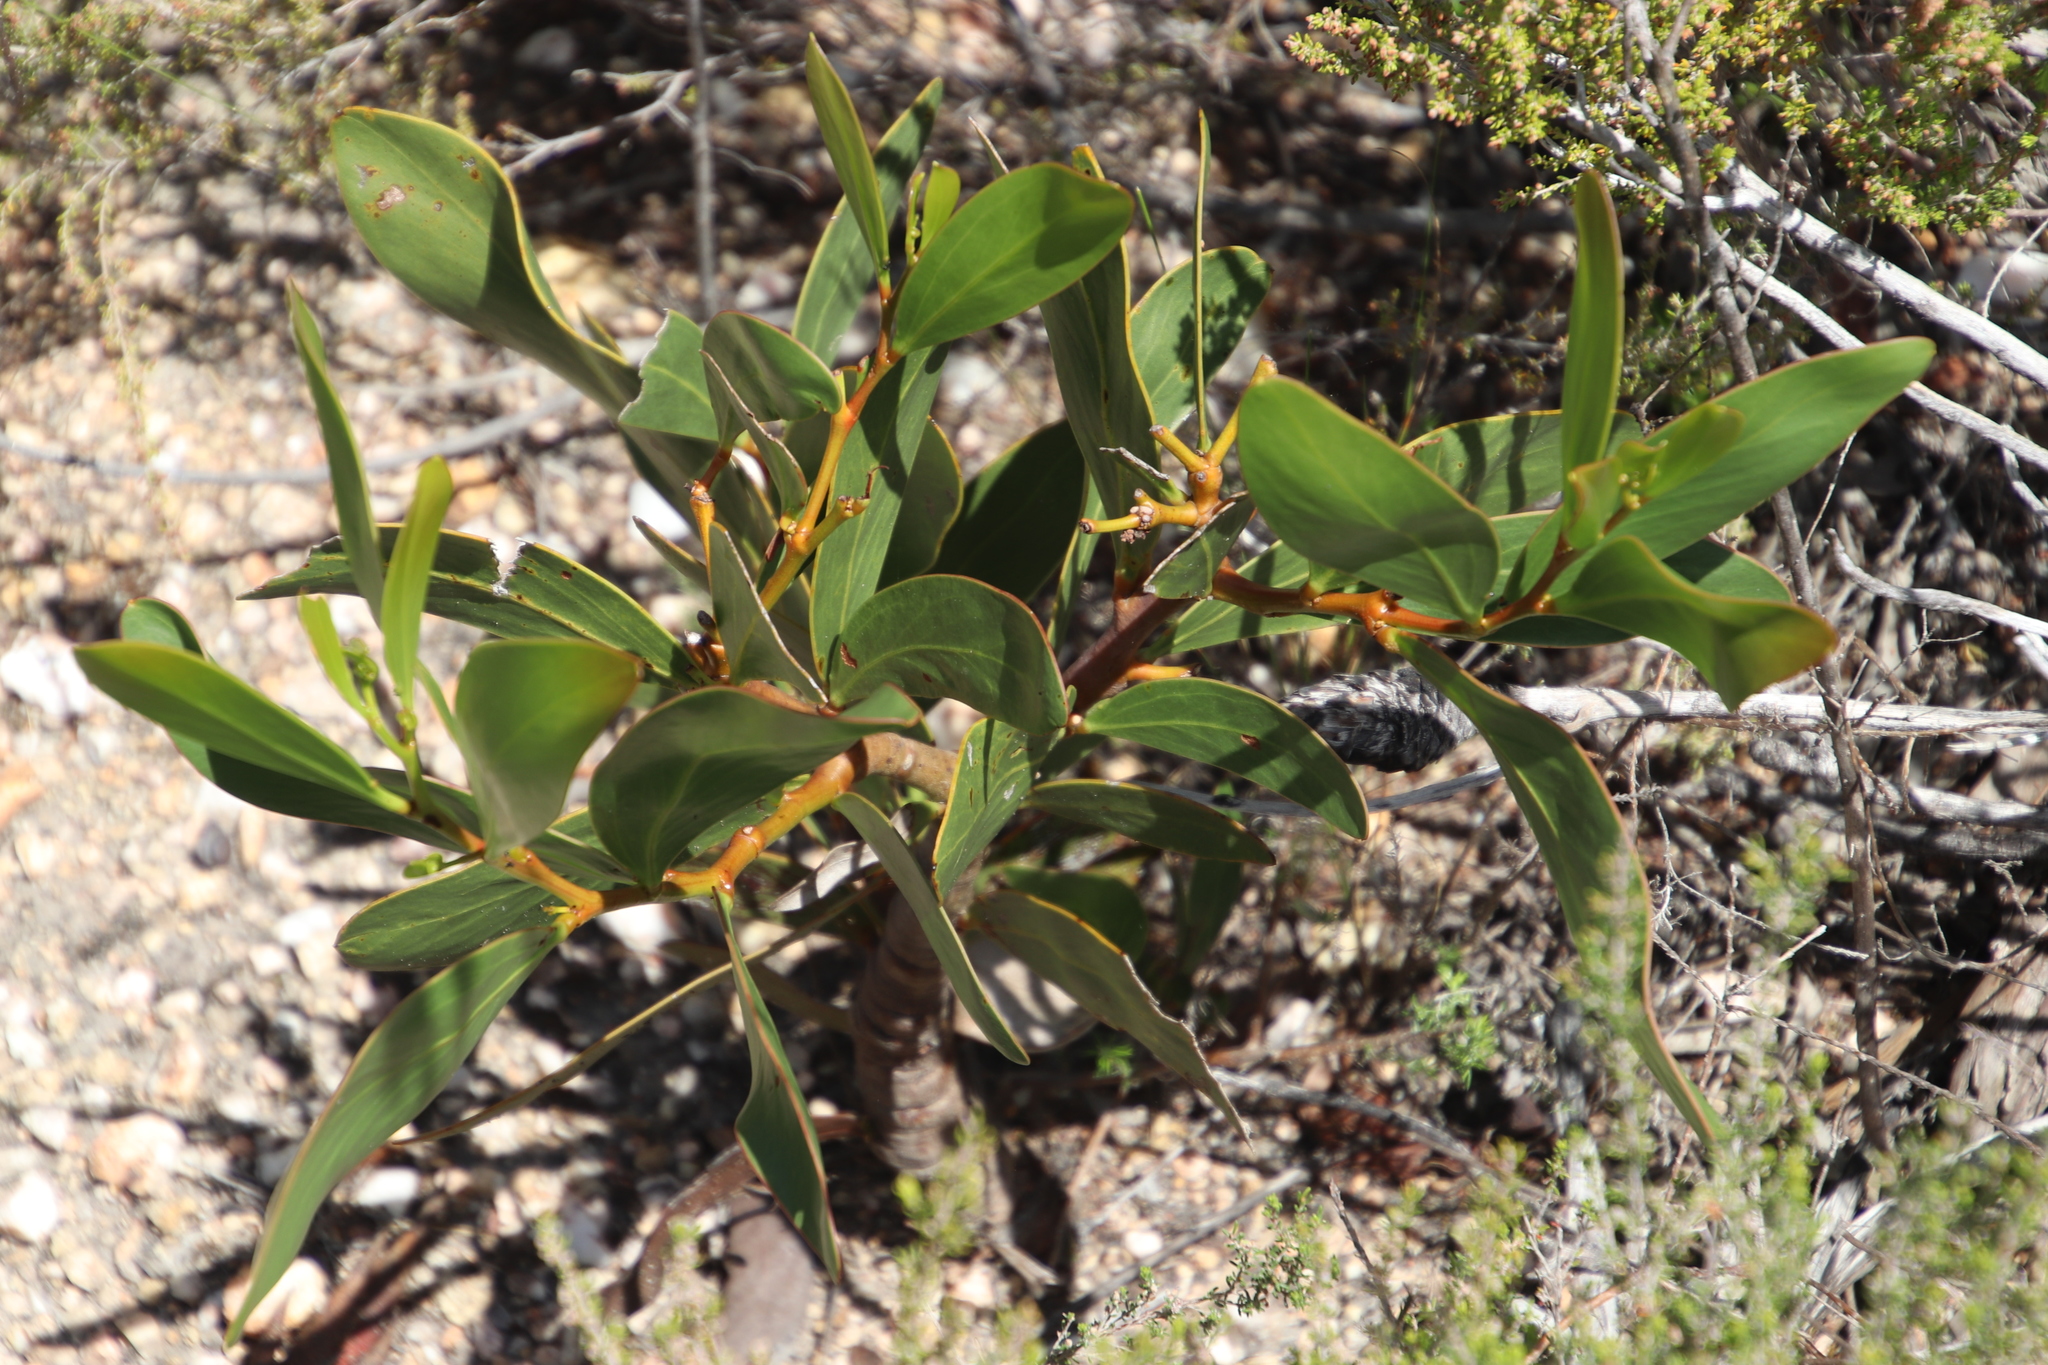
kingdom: Plantae
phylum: Tracheophyta
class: Magnoliopsida
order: Fabales
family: Fabaceae
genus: Acacia
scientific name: Acacia pycnantha
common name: Golden wattle
